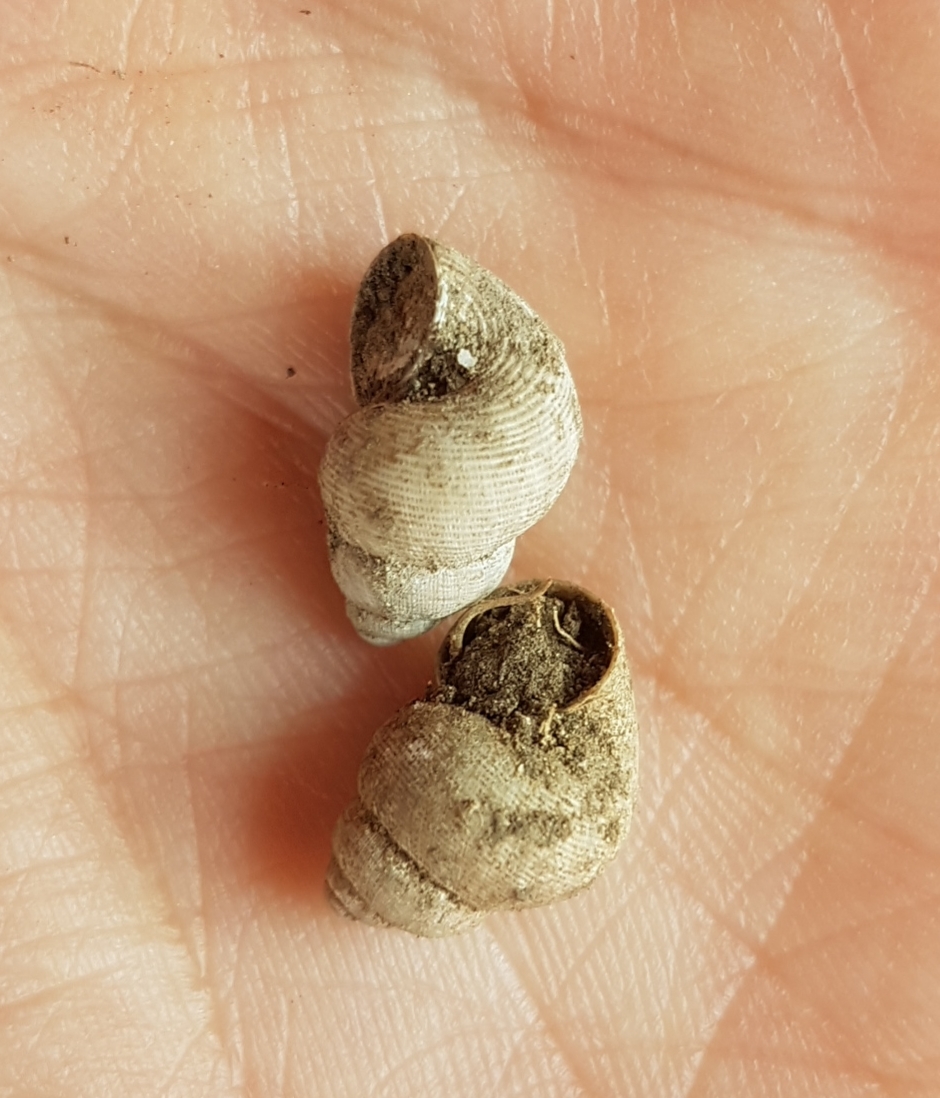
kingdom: Animalia
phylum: Mollusca
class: Gastropoda
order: Littorinimorpha
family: Pomatiidae
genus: Pomatias
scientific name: Pomatias elegans
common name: Red-mouthed snail
